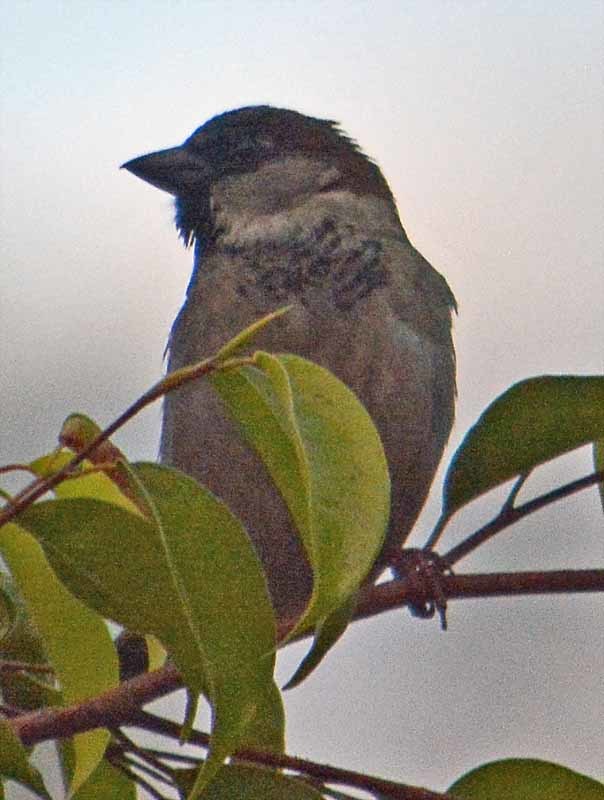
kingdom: Animalia
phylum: Chordata
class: Aves
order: Passeriformes
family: Passeridae
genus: Passer
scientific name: Passer domesticus
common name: House sparrow
